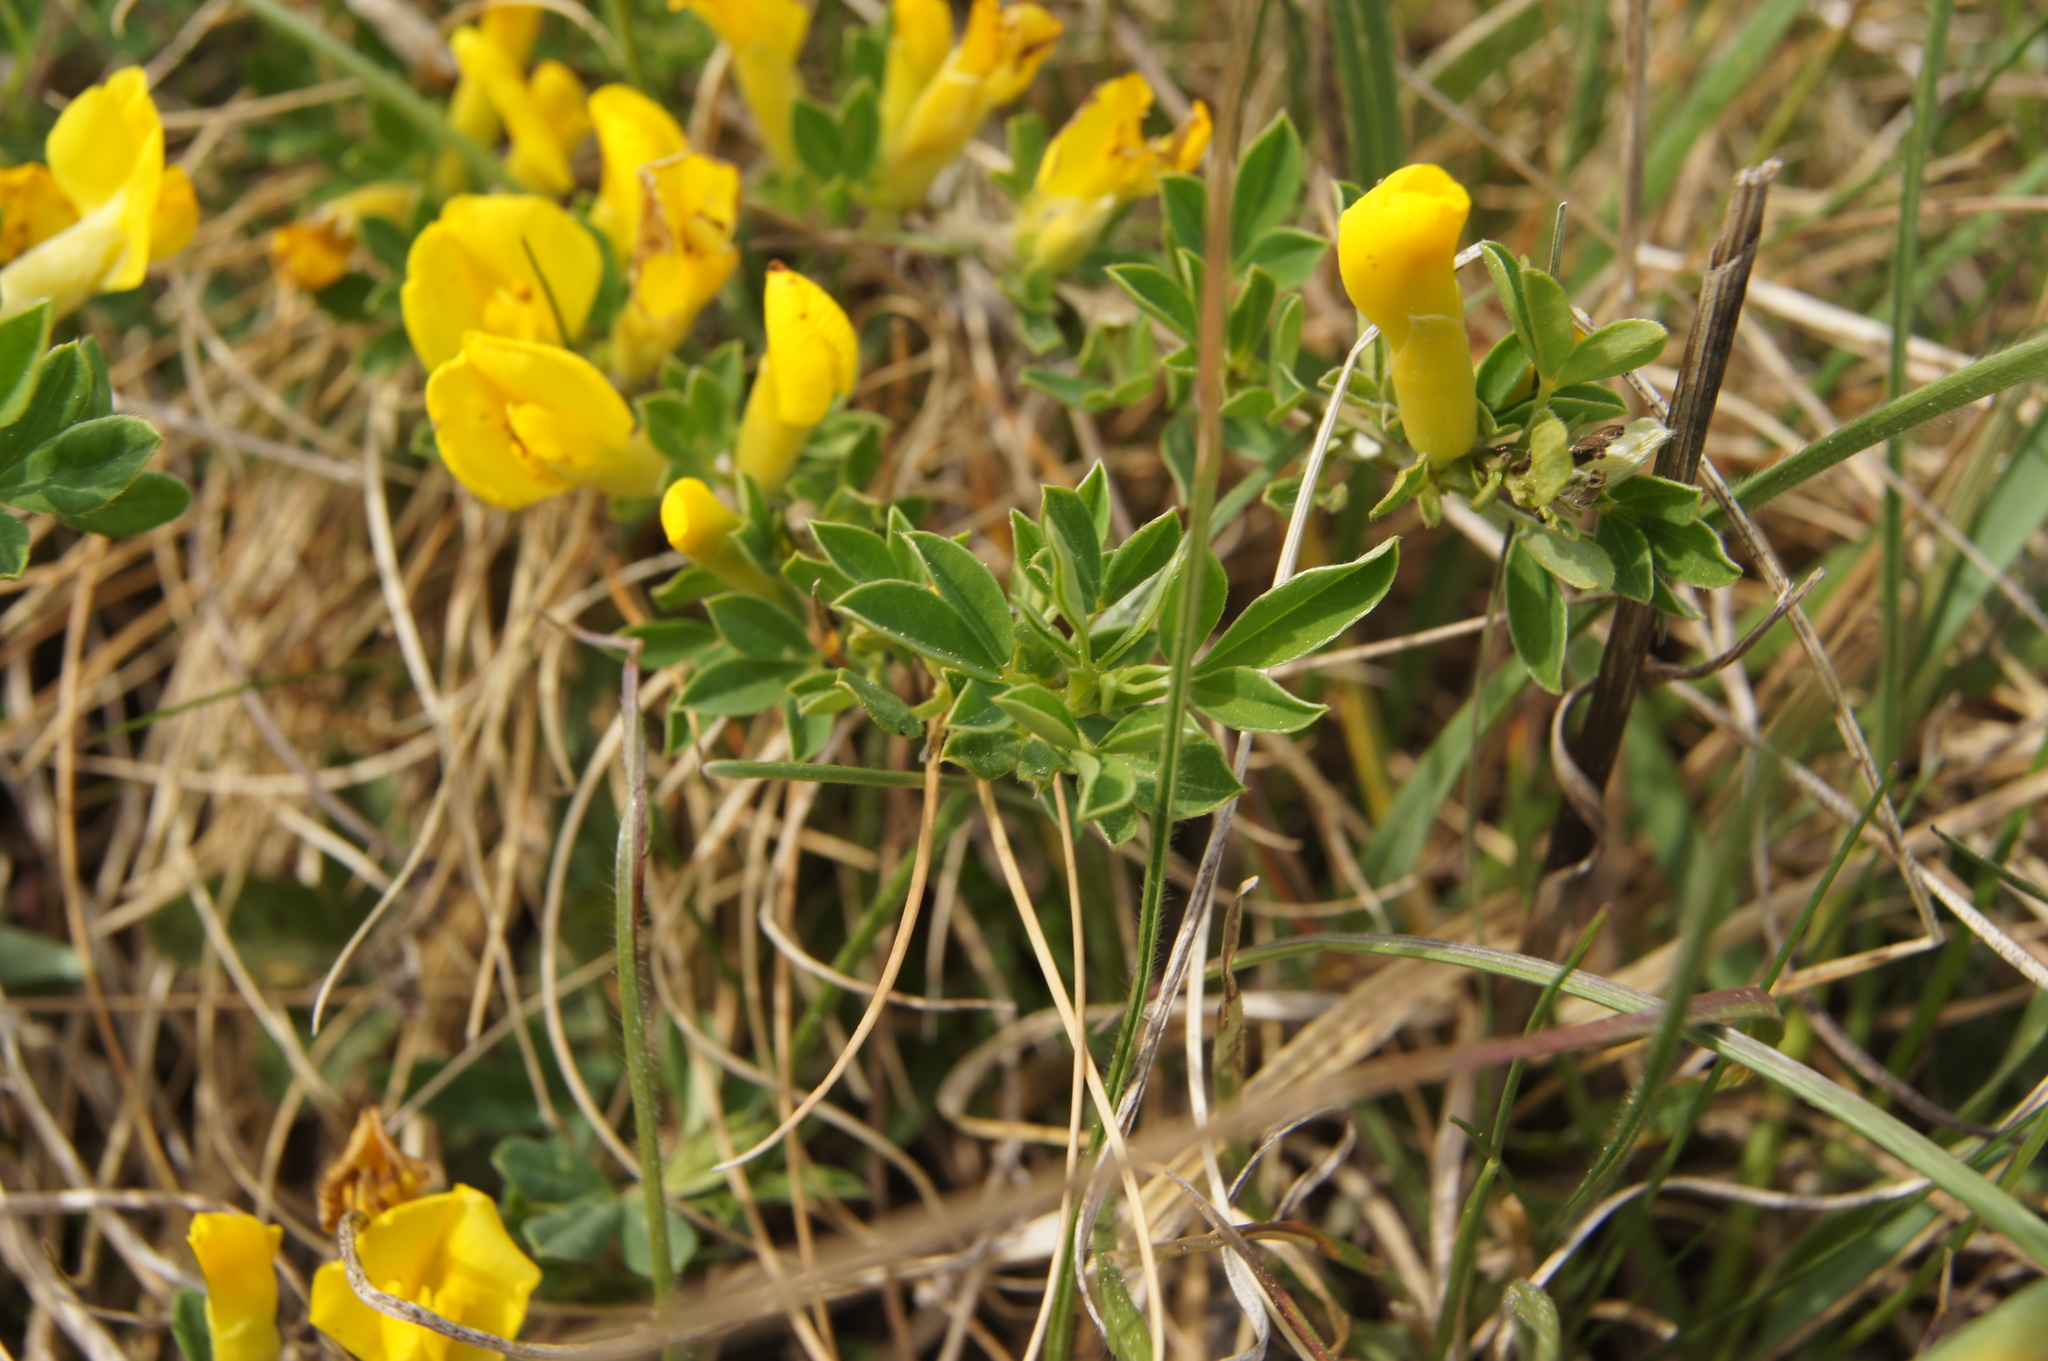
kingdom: Plantae
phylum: Tracheophyta
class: Magnoliopsida
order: Fabales
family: Fabaceae
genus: Chamaecytisus
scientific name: Chamaecytisus ratisbonensis
